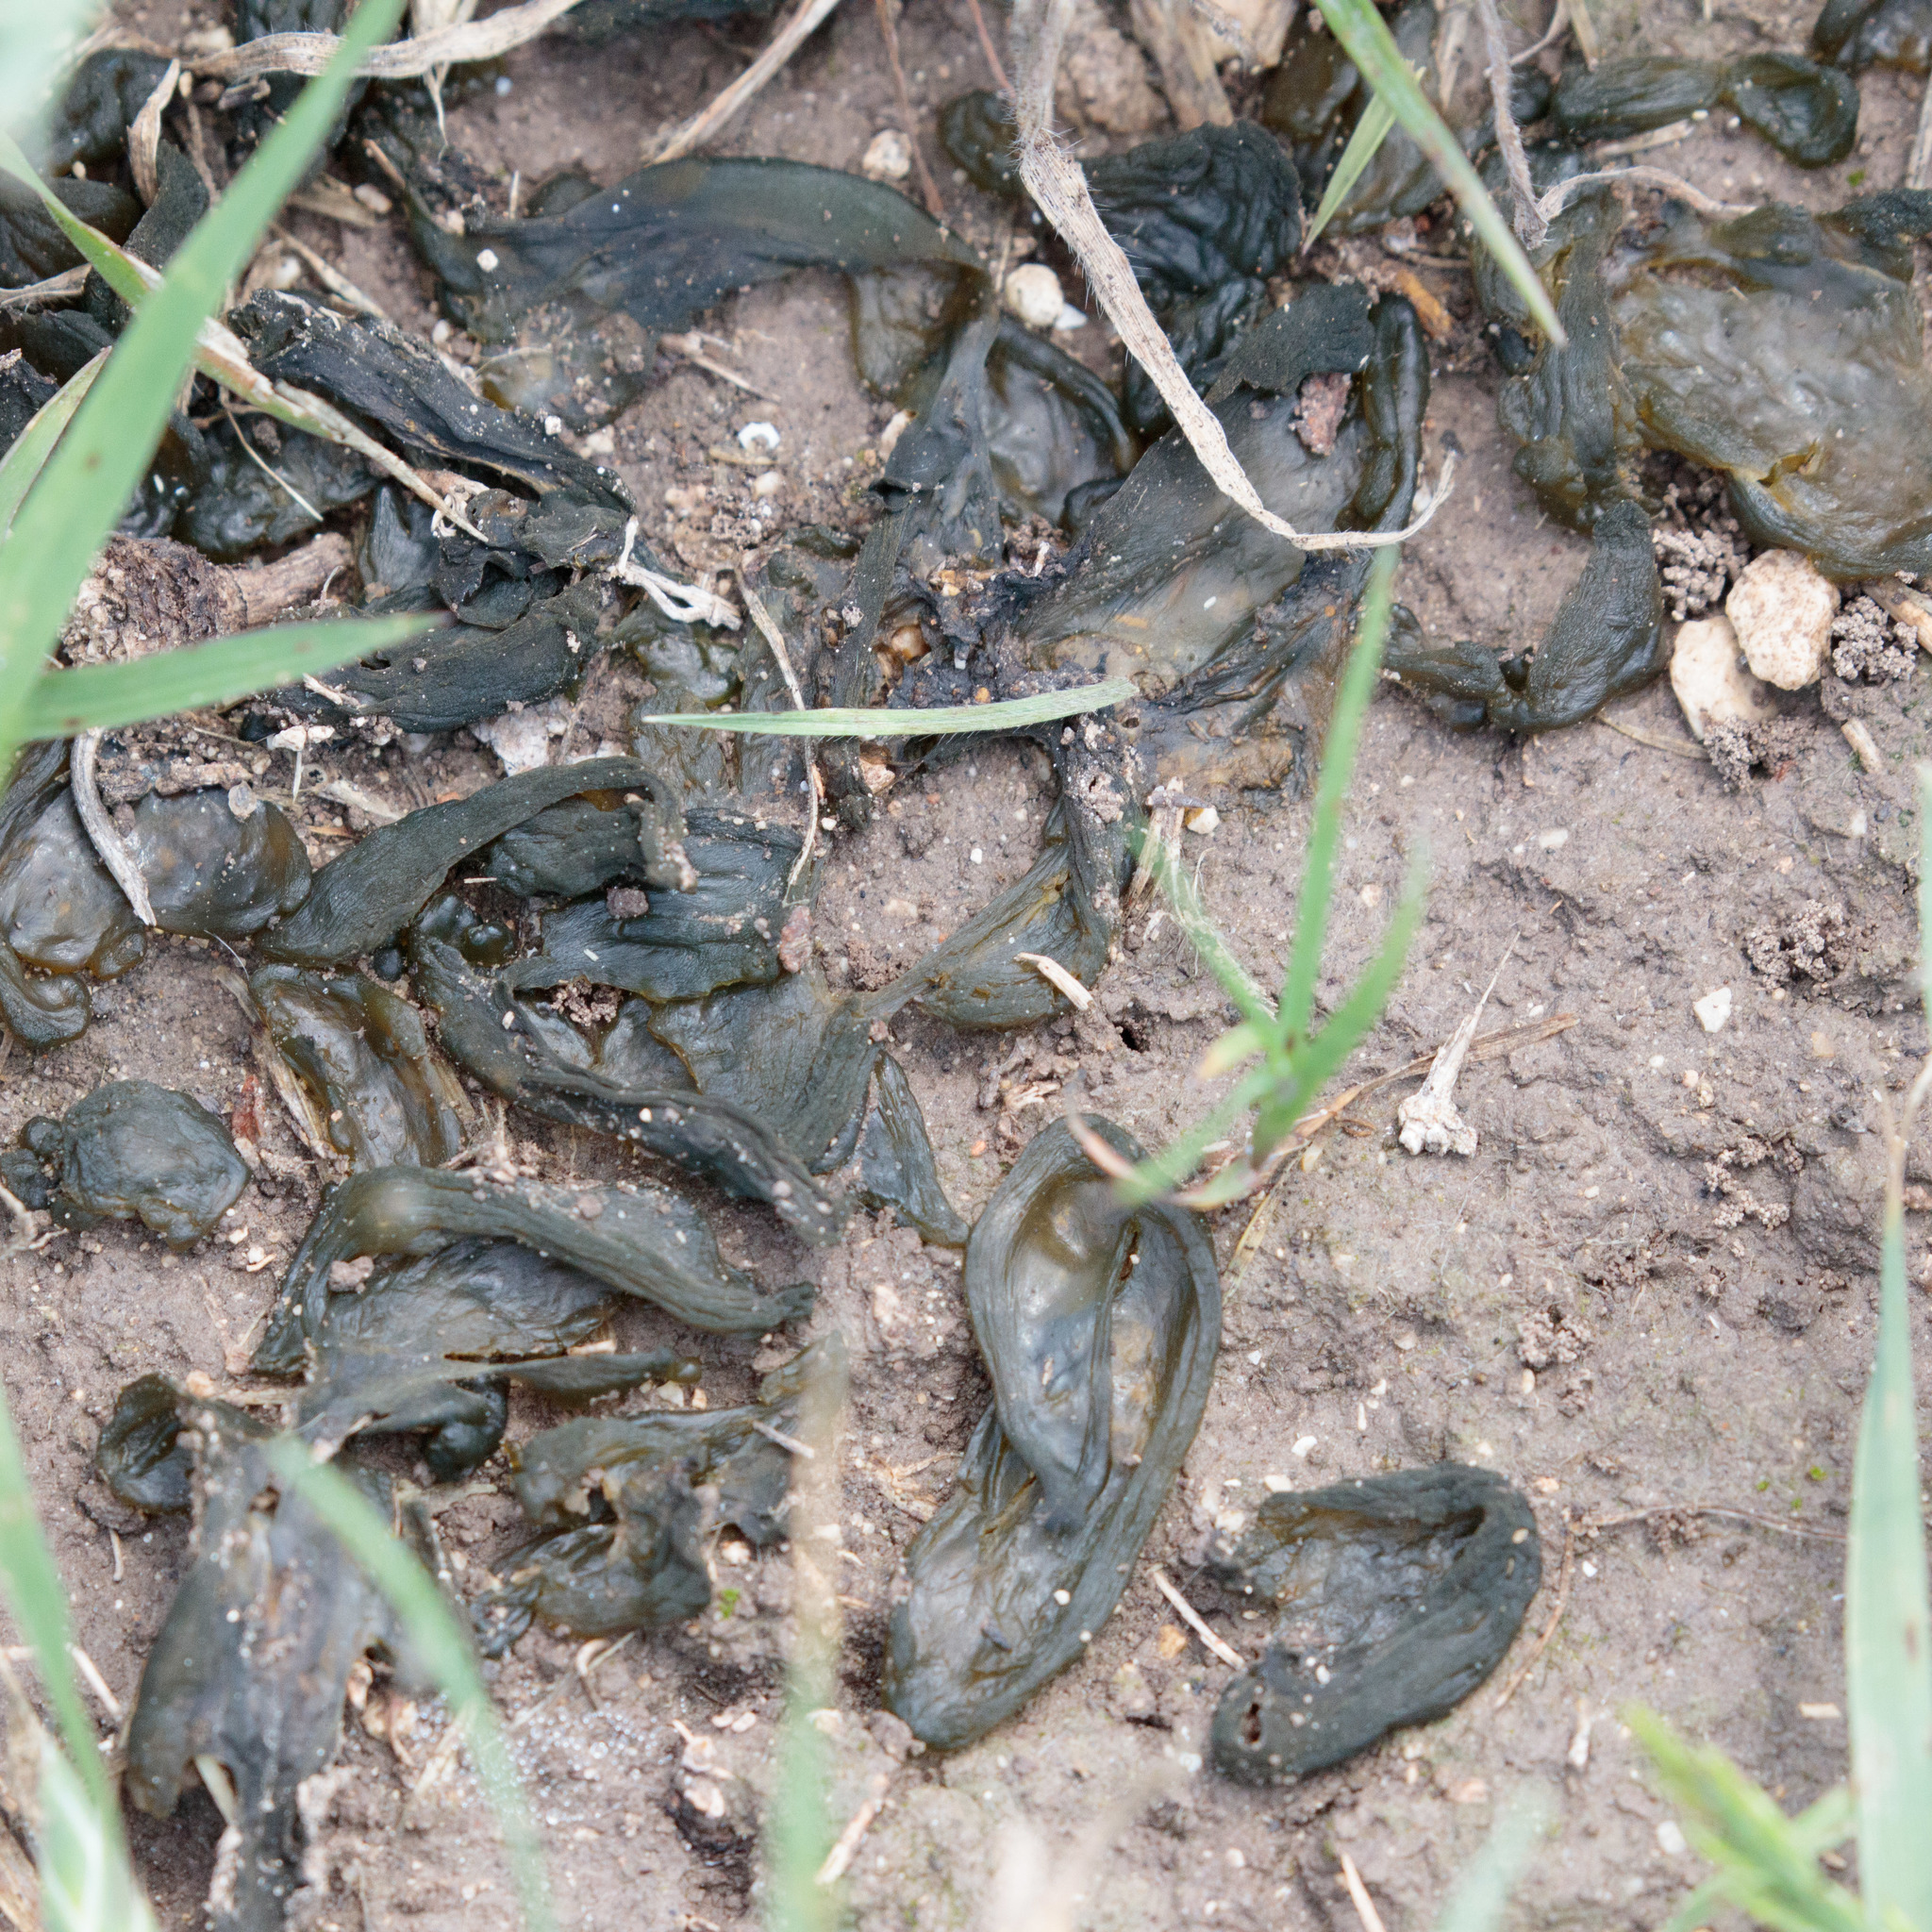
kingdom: Bacteria
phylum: Cyanobacteria
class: Cyanobacteriia
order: Cyanobacteriales
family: Nostocaceae
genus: Nostoc
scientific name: Nostoc commune
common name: Star jelly
